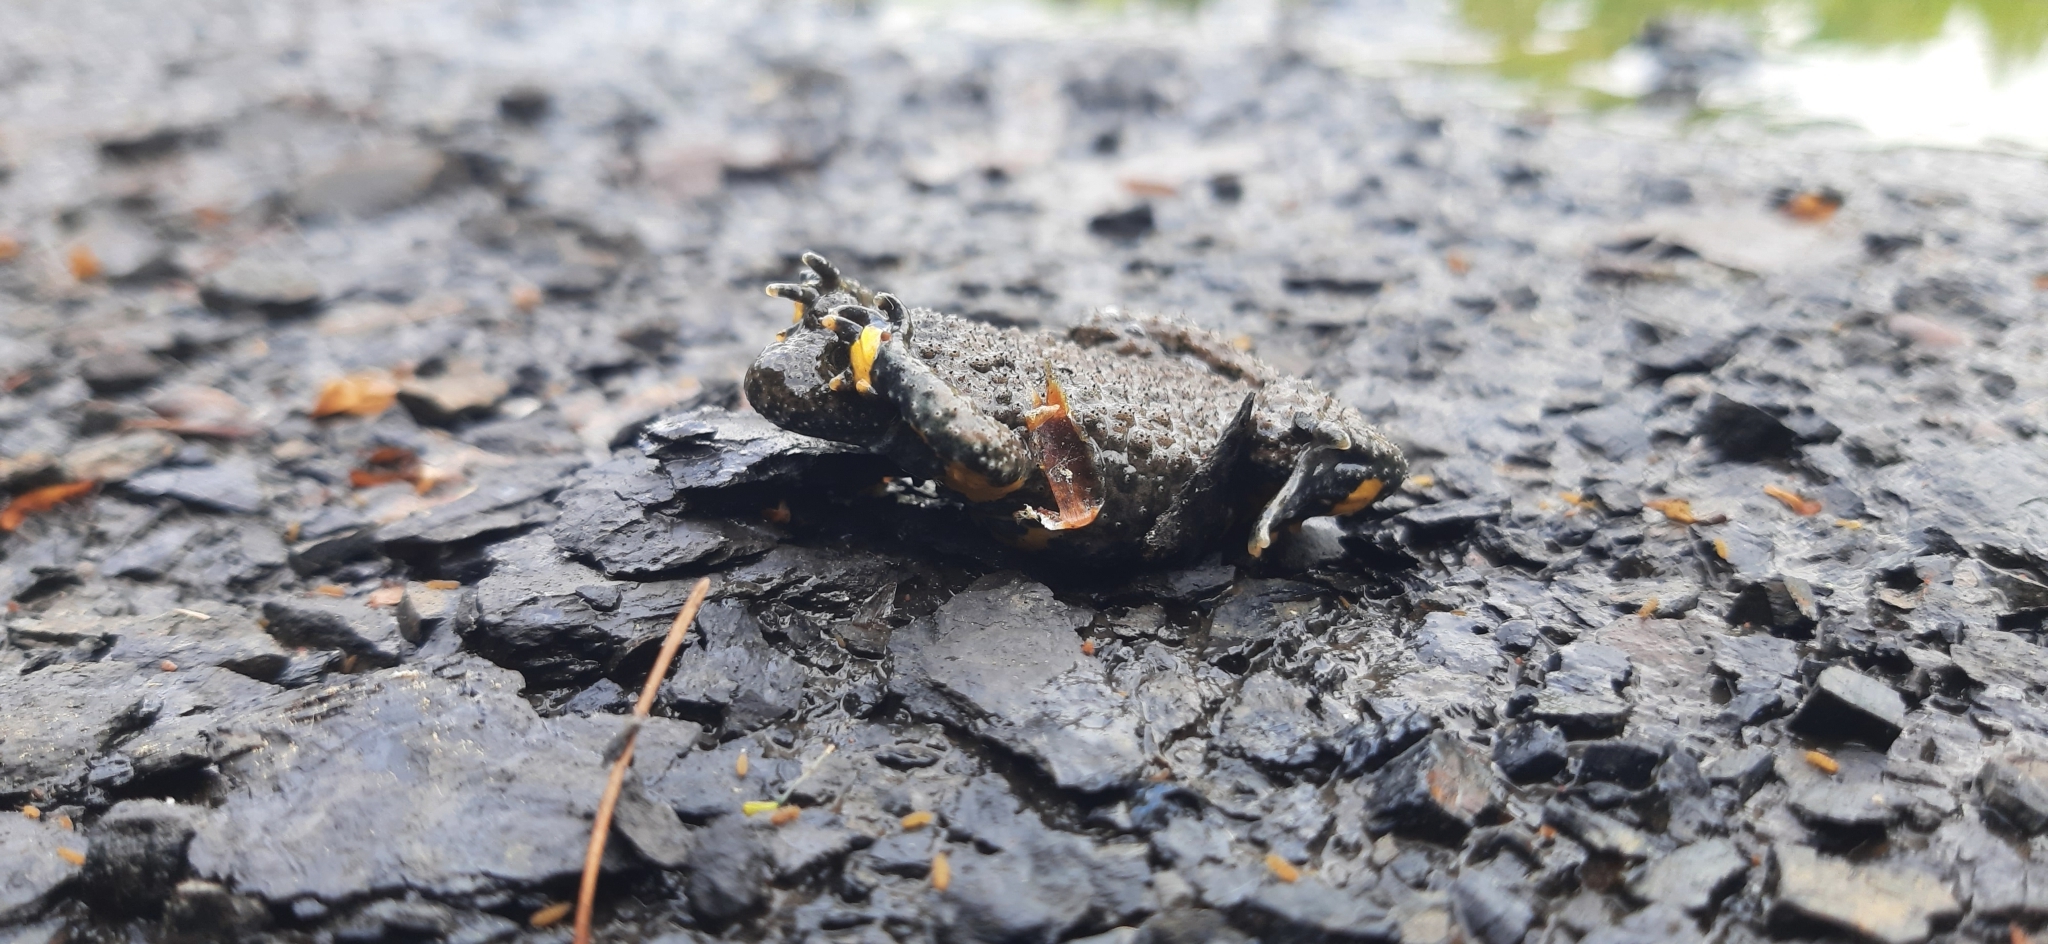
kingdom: Animalia
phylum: Chordata
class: Amphibia
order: Anura
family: Bombinatoridae
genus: Bombina
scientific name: Bombina variegata
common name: Yellow-bellied toad
